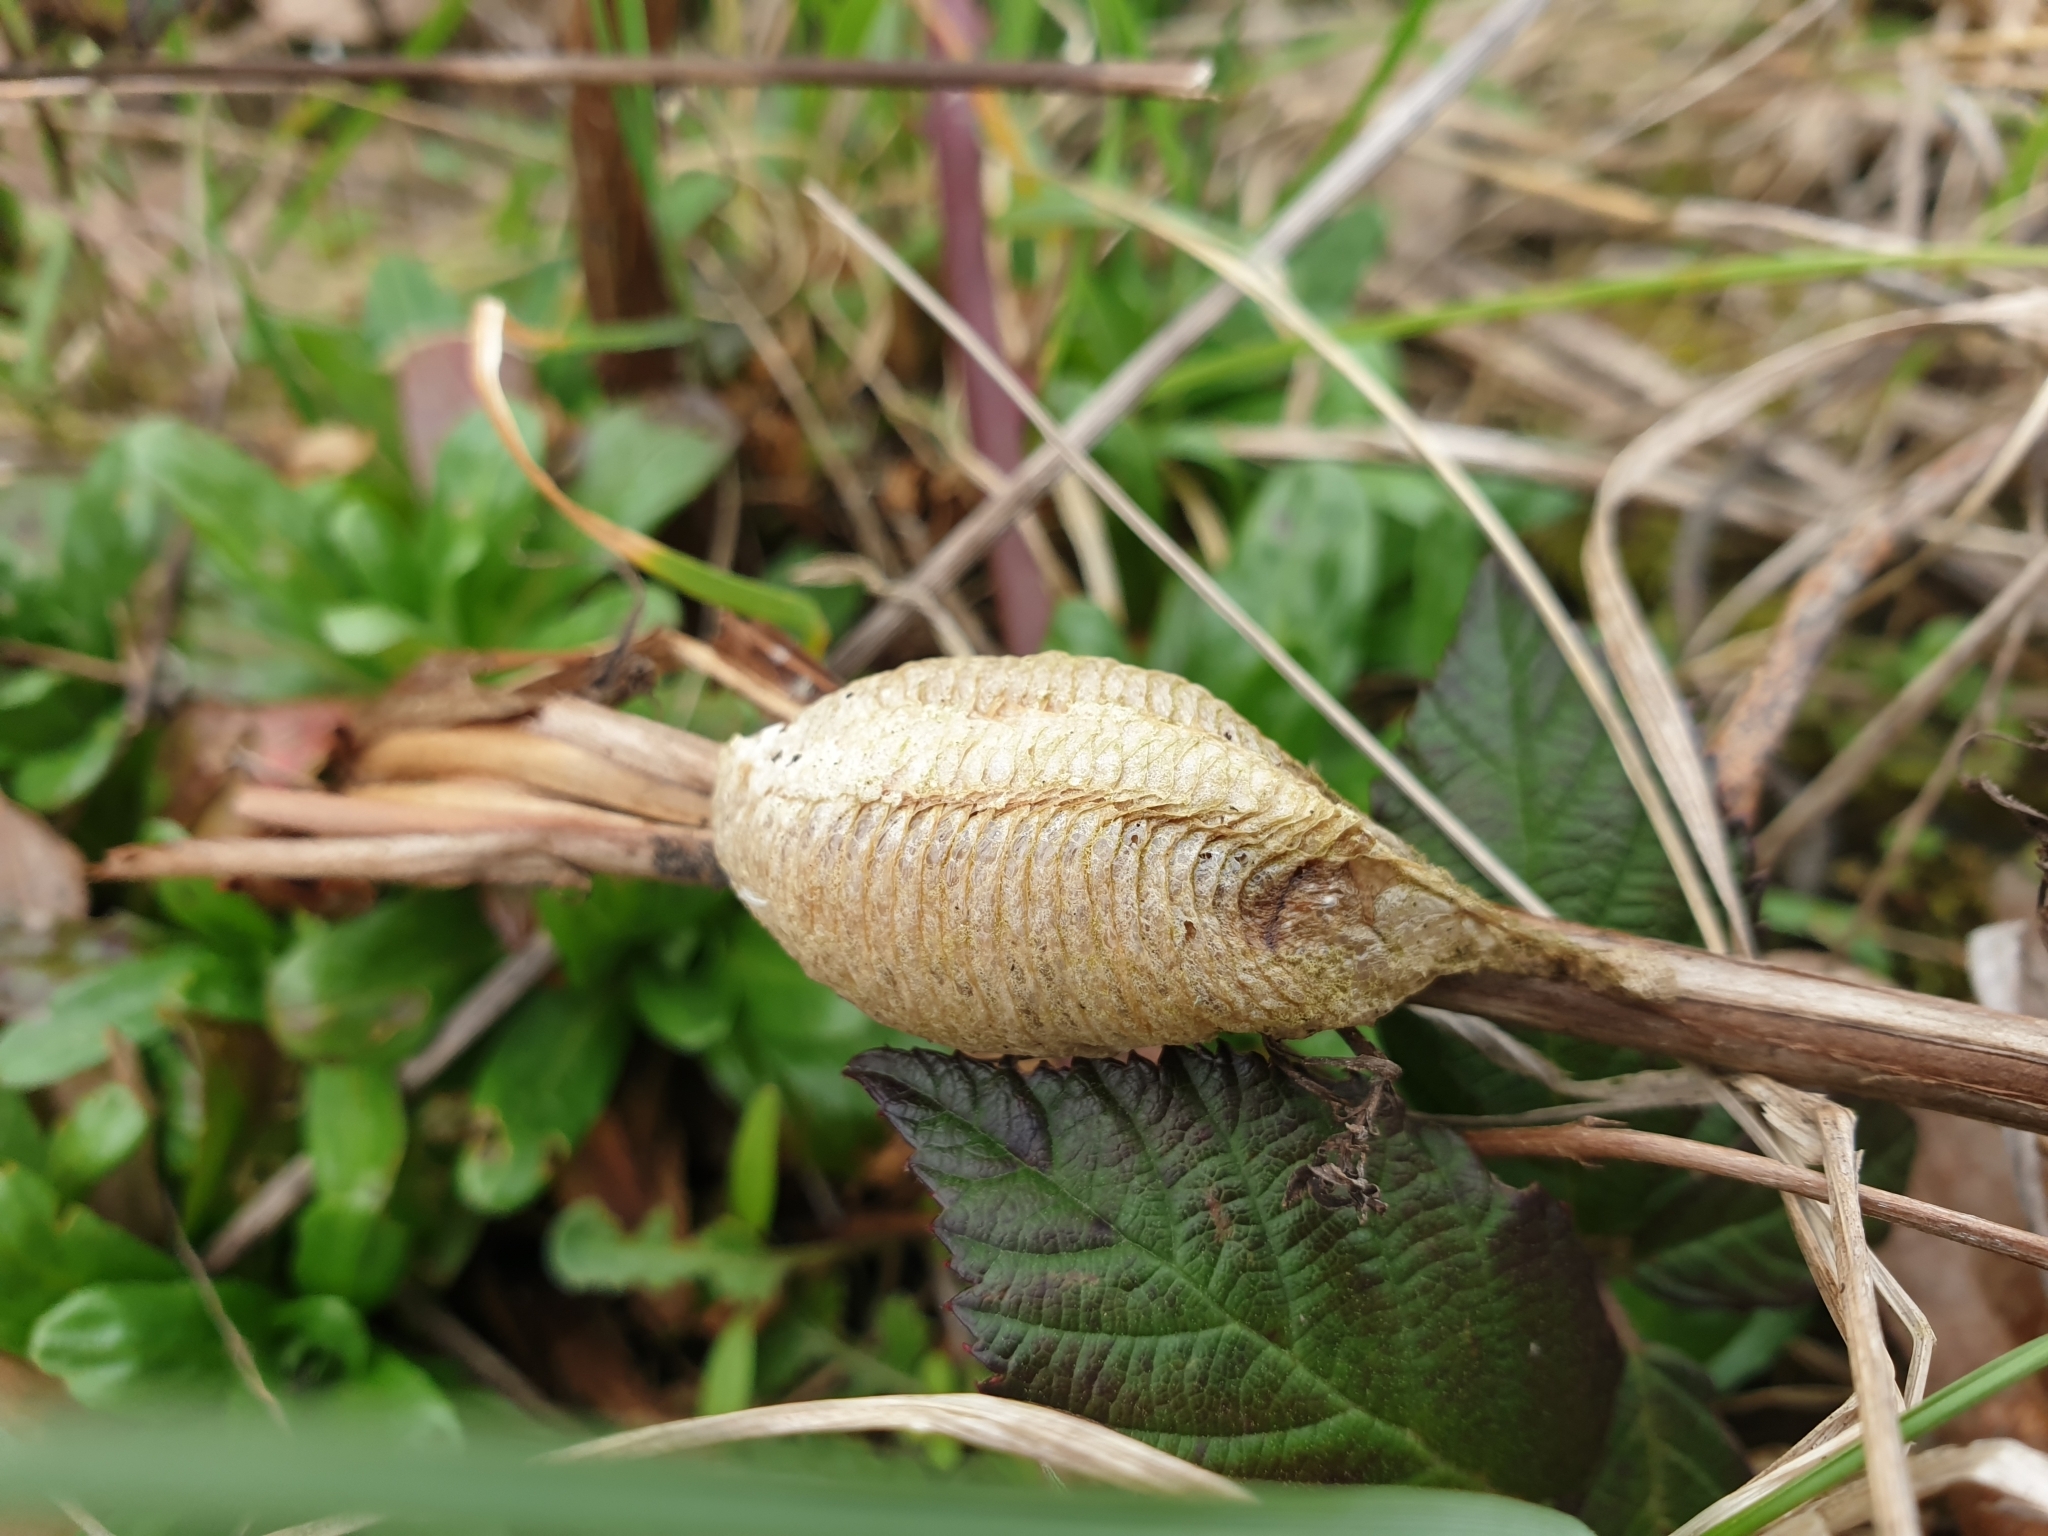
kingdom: Animalia
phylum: Arthropoda
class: Insecta
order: Mantodea
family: Mantidae
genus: Mantis
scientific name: Mantis religiosa
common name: Praying mantis
